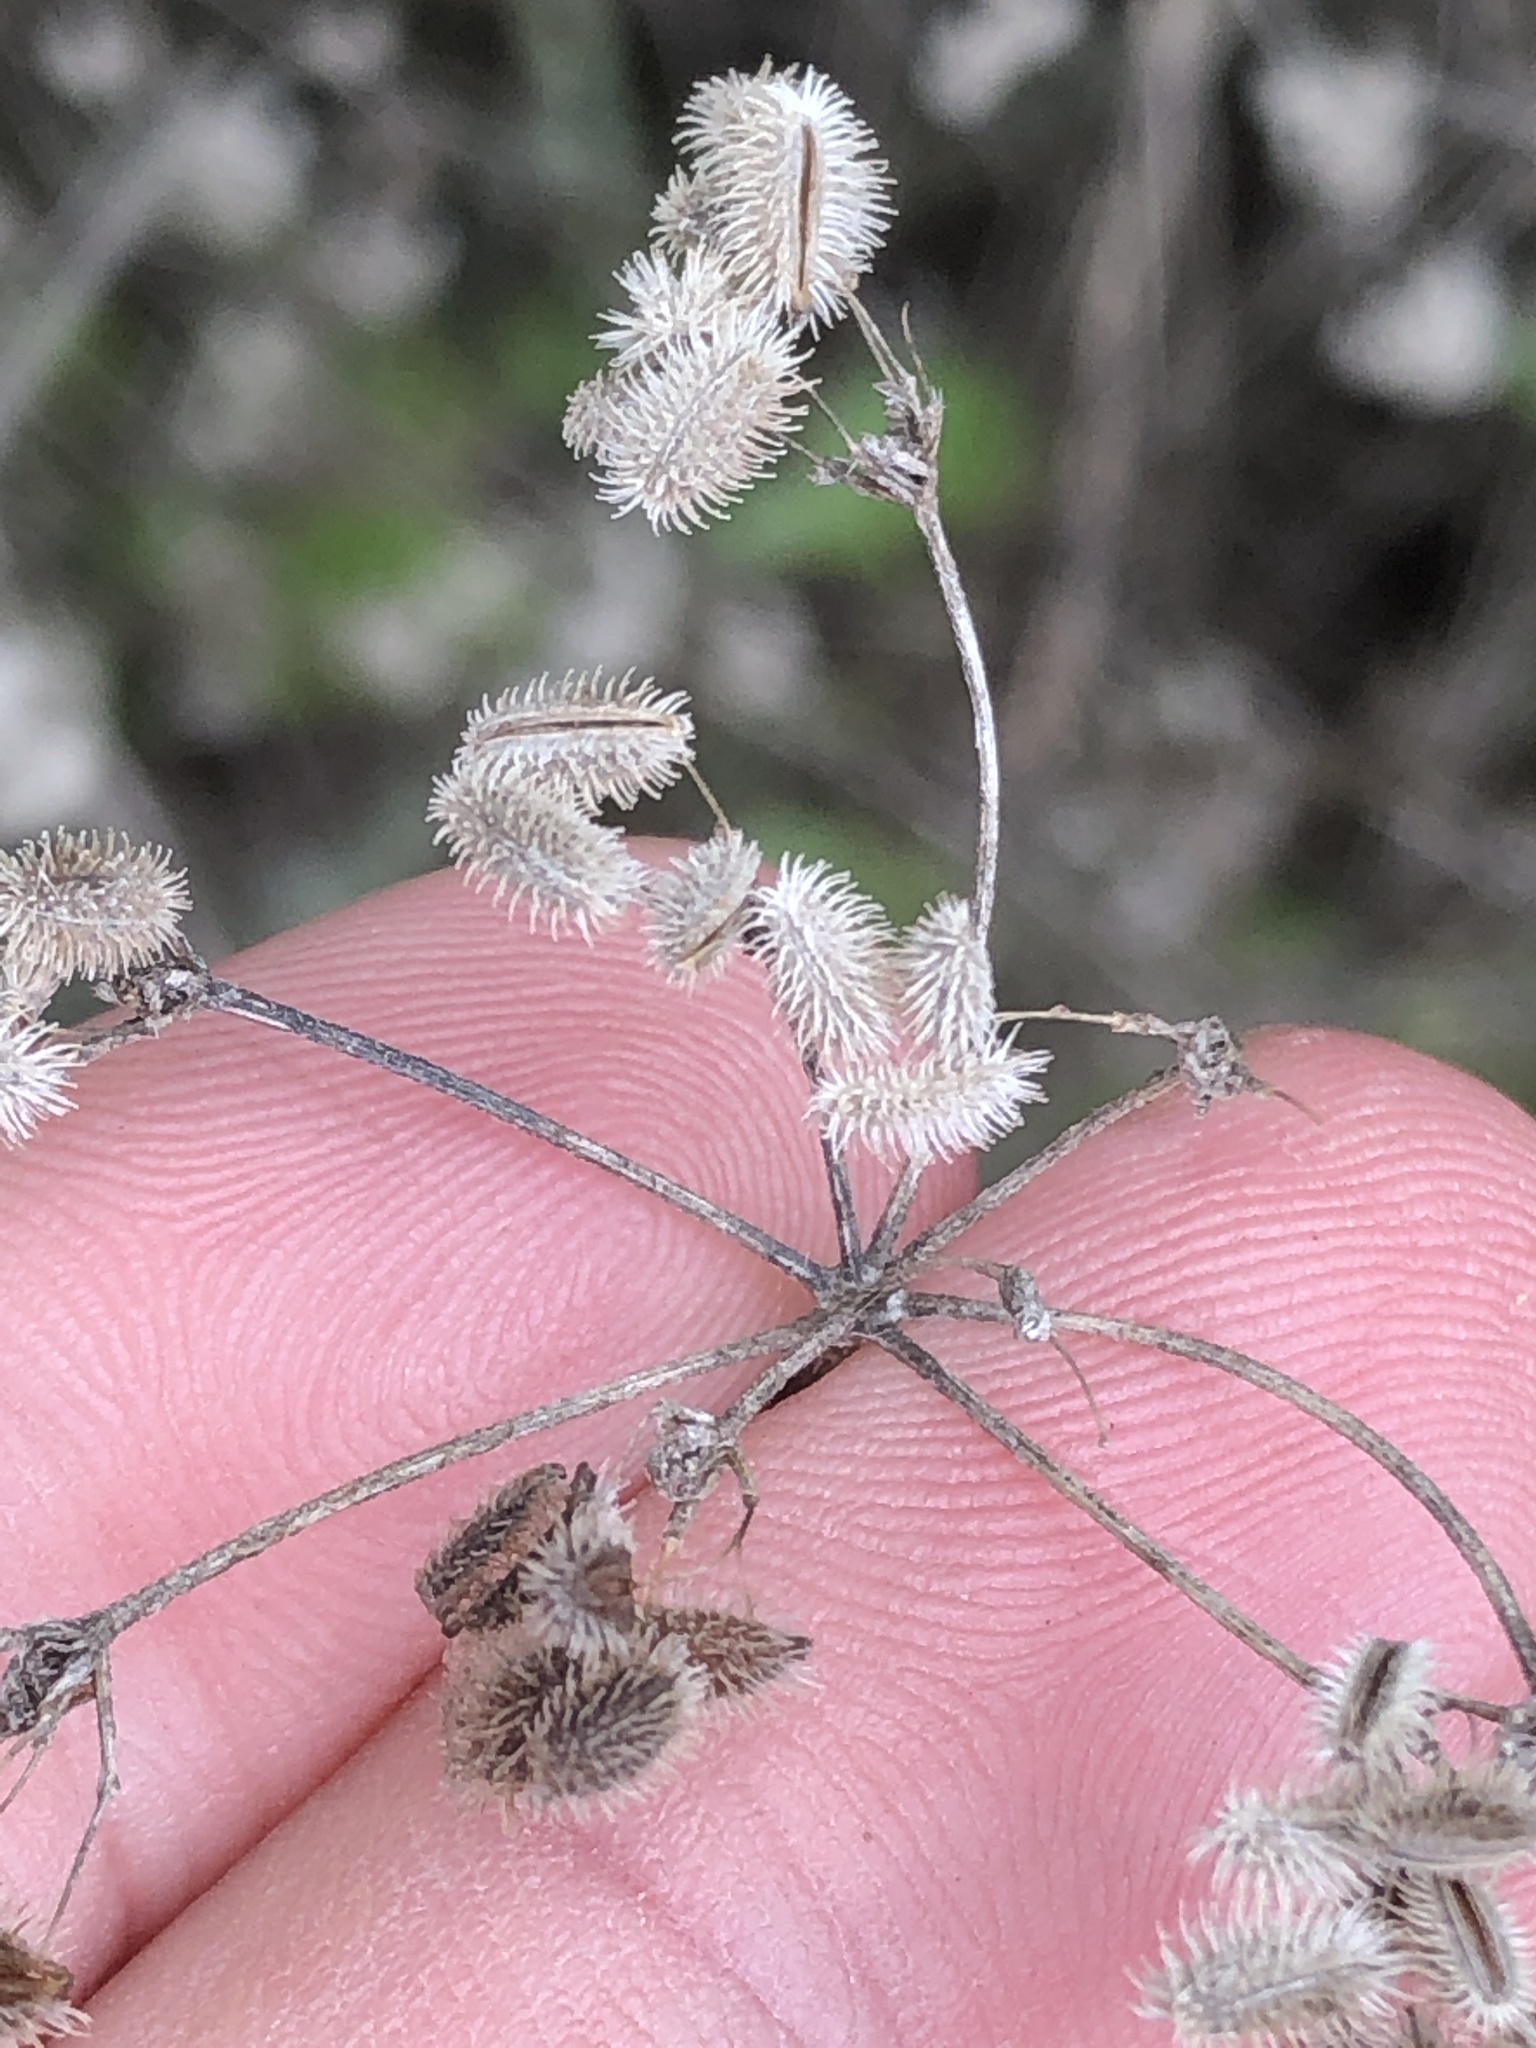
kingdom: Plantae
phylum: Tracheophyta
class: Magnoliopsida
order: Apiales
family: Apiaceae
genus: Torilis
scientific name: Torilis arvensis
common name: Spreading hedge-parsley
